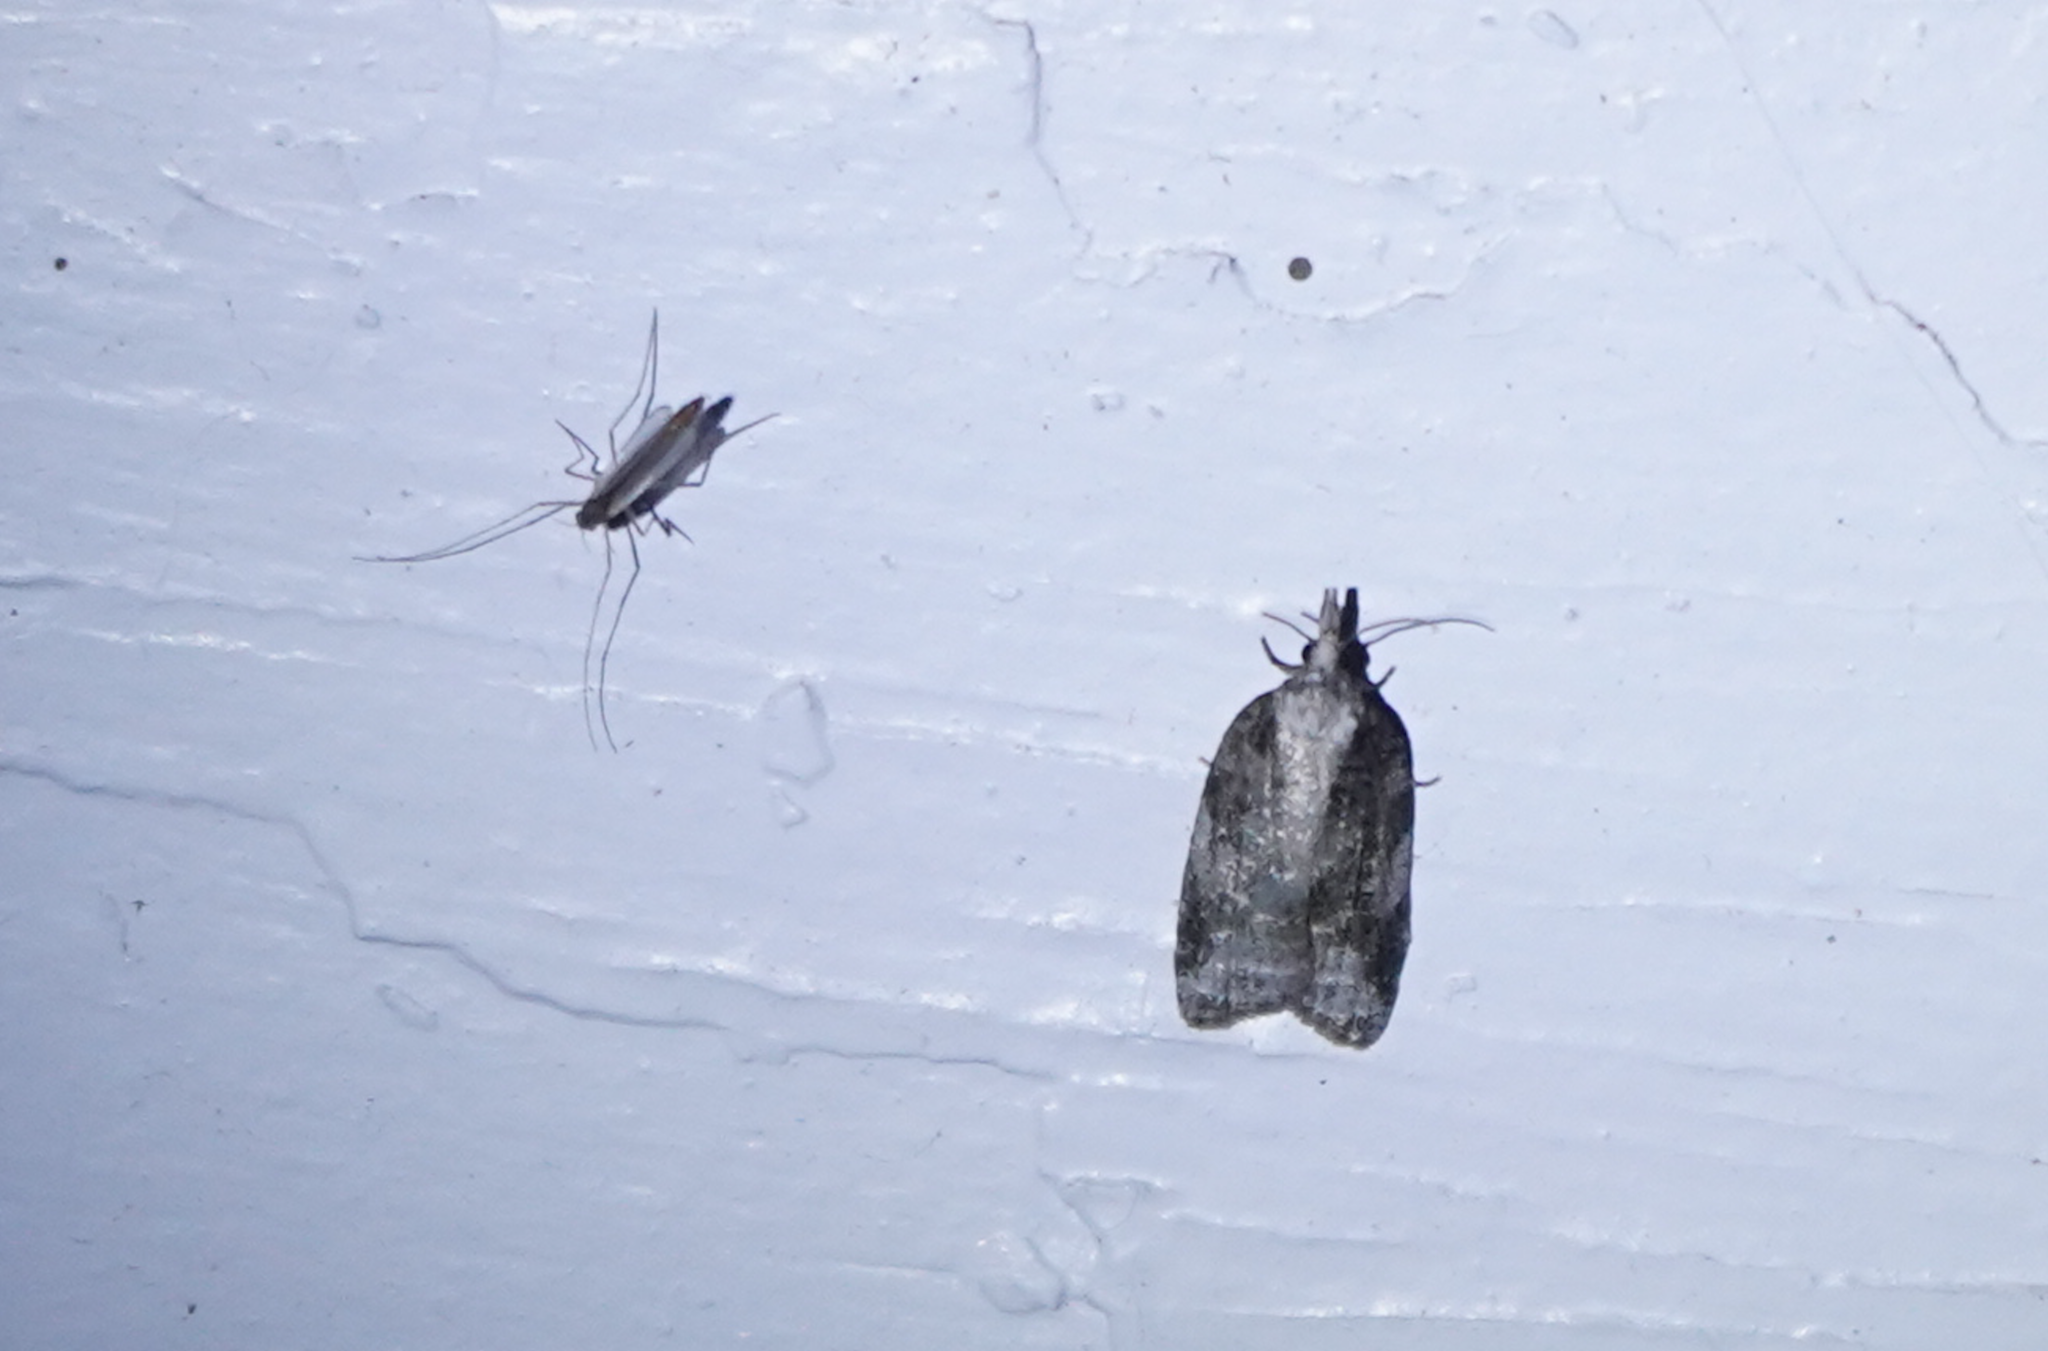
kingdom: Animalia
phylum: Arthropoda
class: Insecta
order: Lepidoptera
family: Tortricidae
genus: Platynota
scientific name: Platynota exasperatana
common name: Exasperating platynota moth
